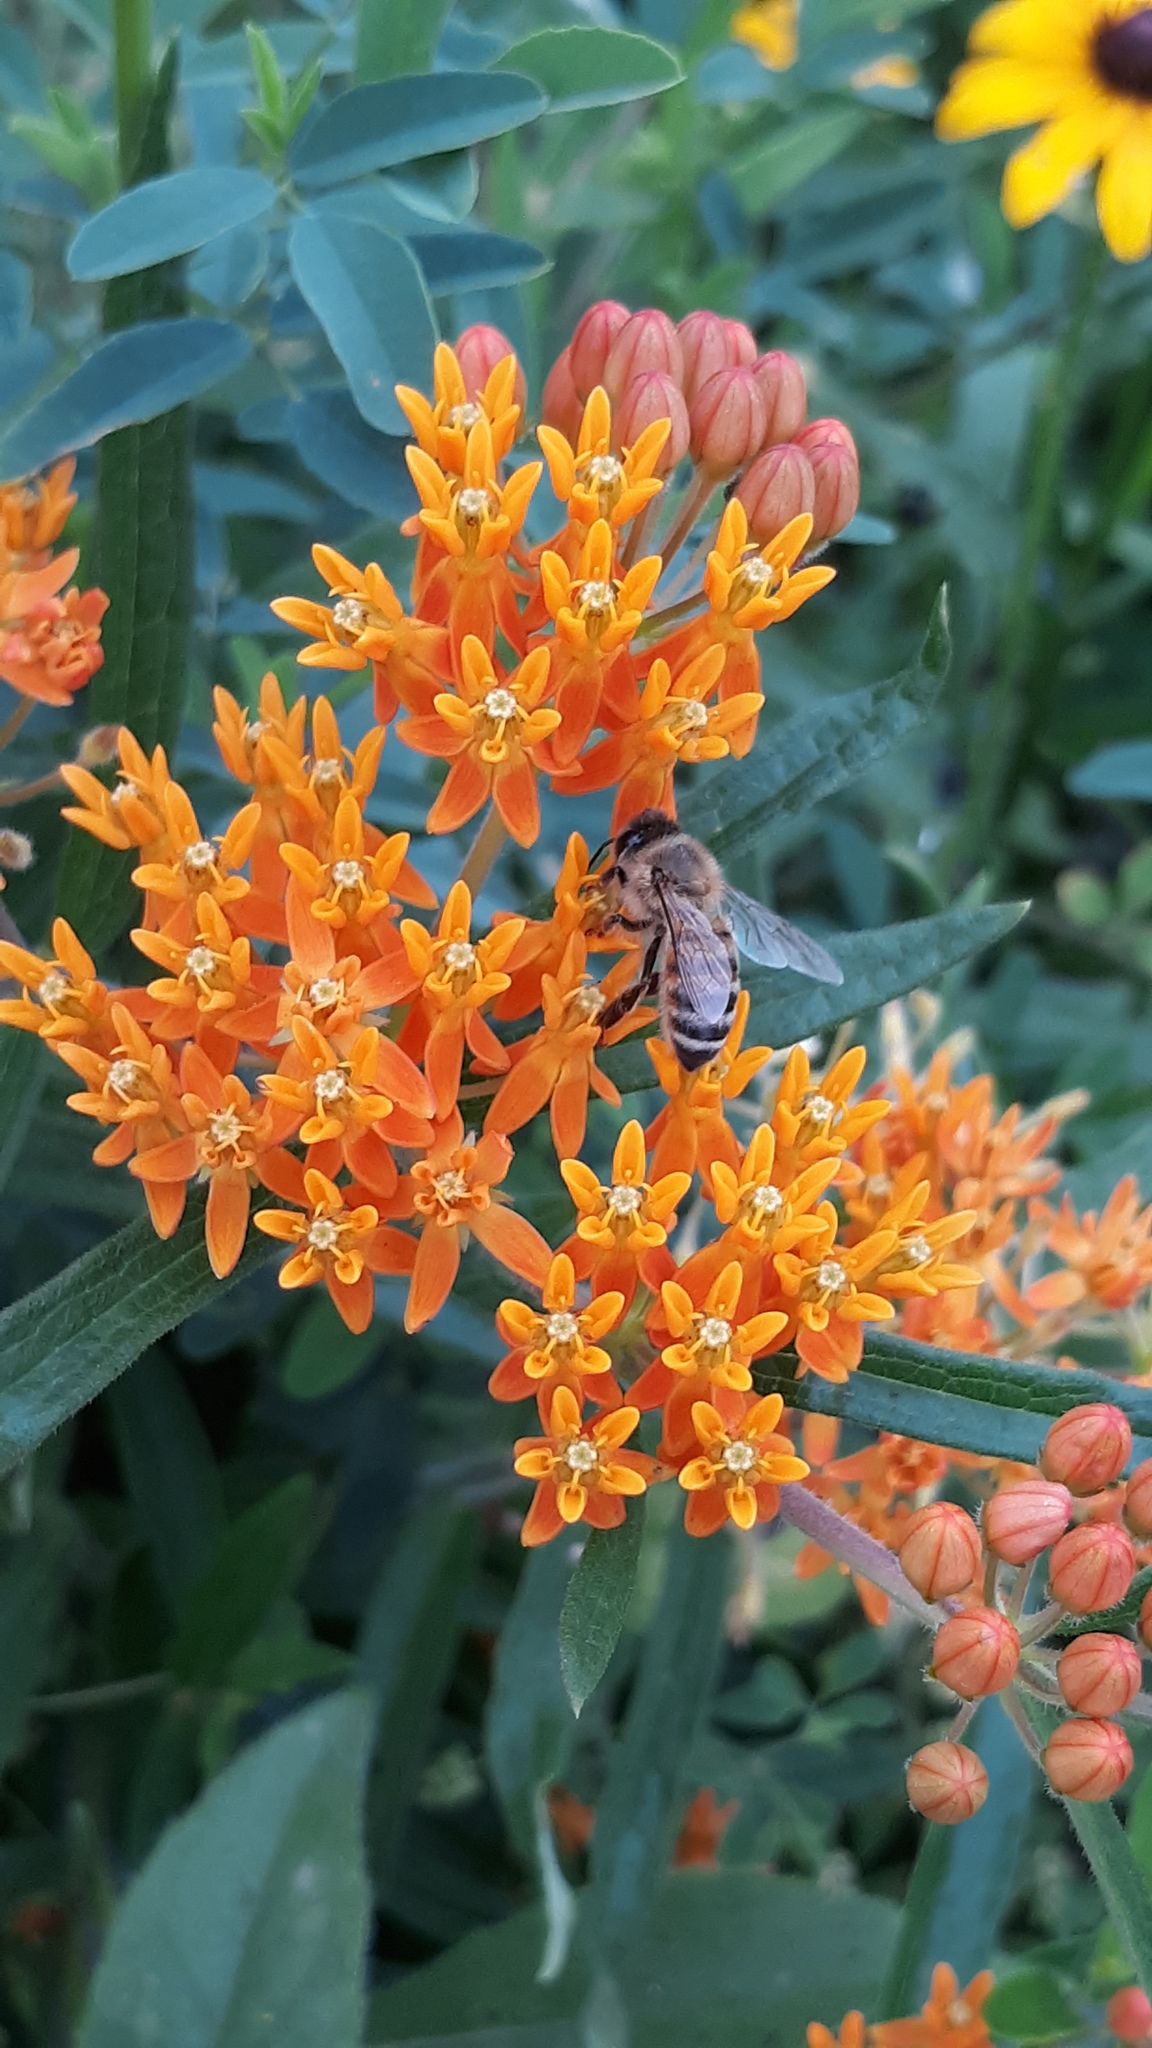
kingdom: Plantae
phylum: Tracheophyta
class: Magnoliopsida
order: Gentianales
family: Apocynaceae
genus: Asclepias
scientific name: Asclepias tuberosa
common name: Butterfly milkweed
